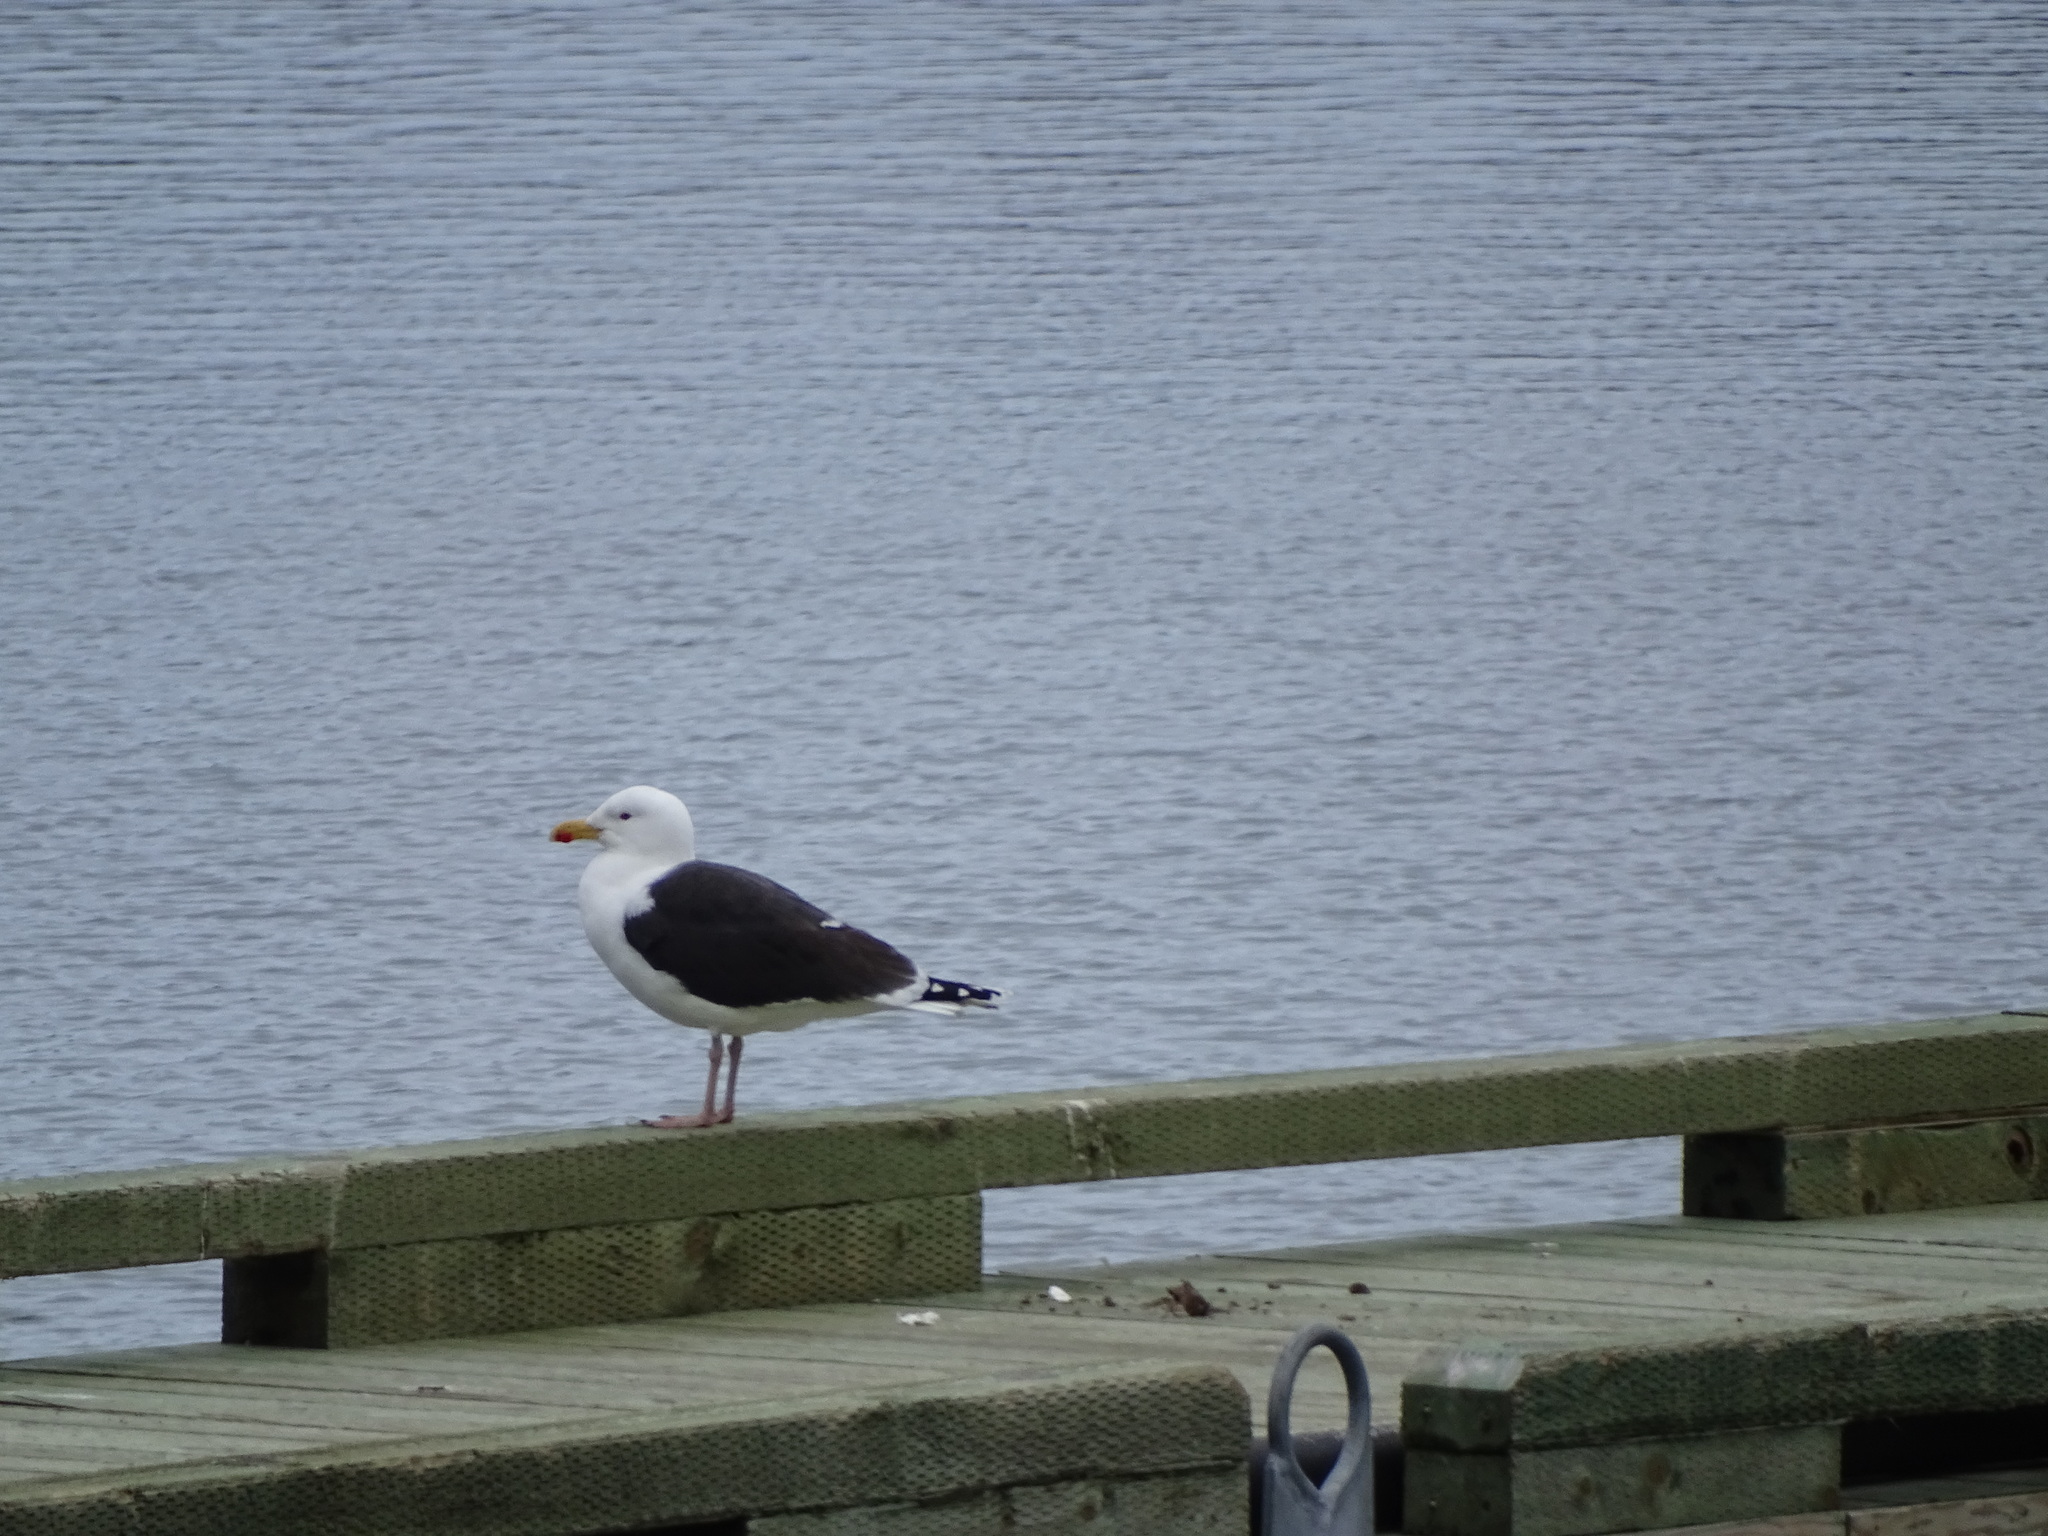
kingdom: Animalia
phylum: Chordata
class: Aves
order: Charadriiformes
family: Laridae
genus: Larus
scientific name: Larus marinus
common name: Great black-backed gull
